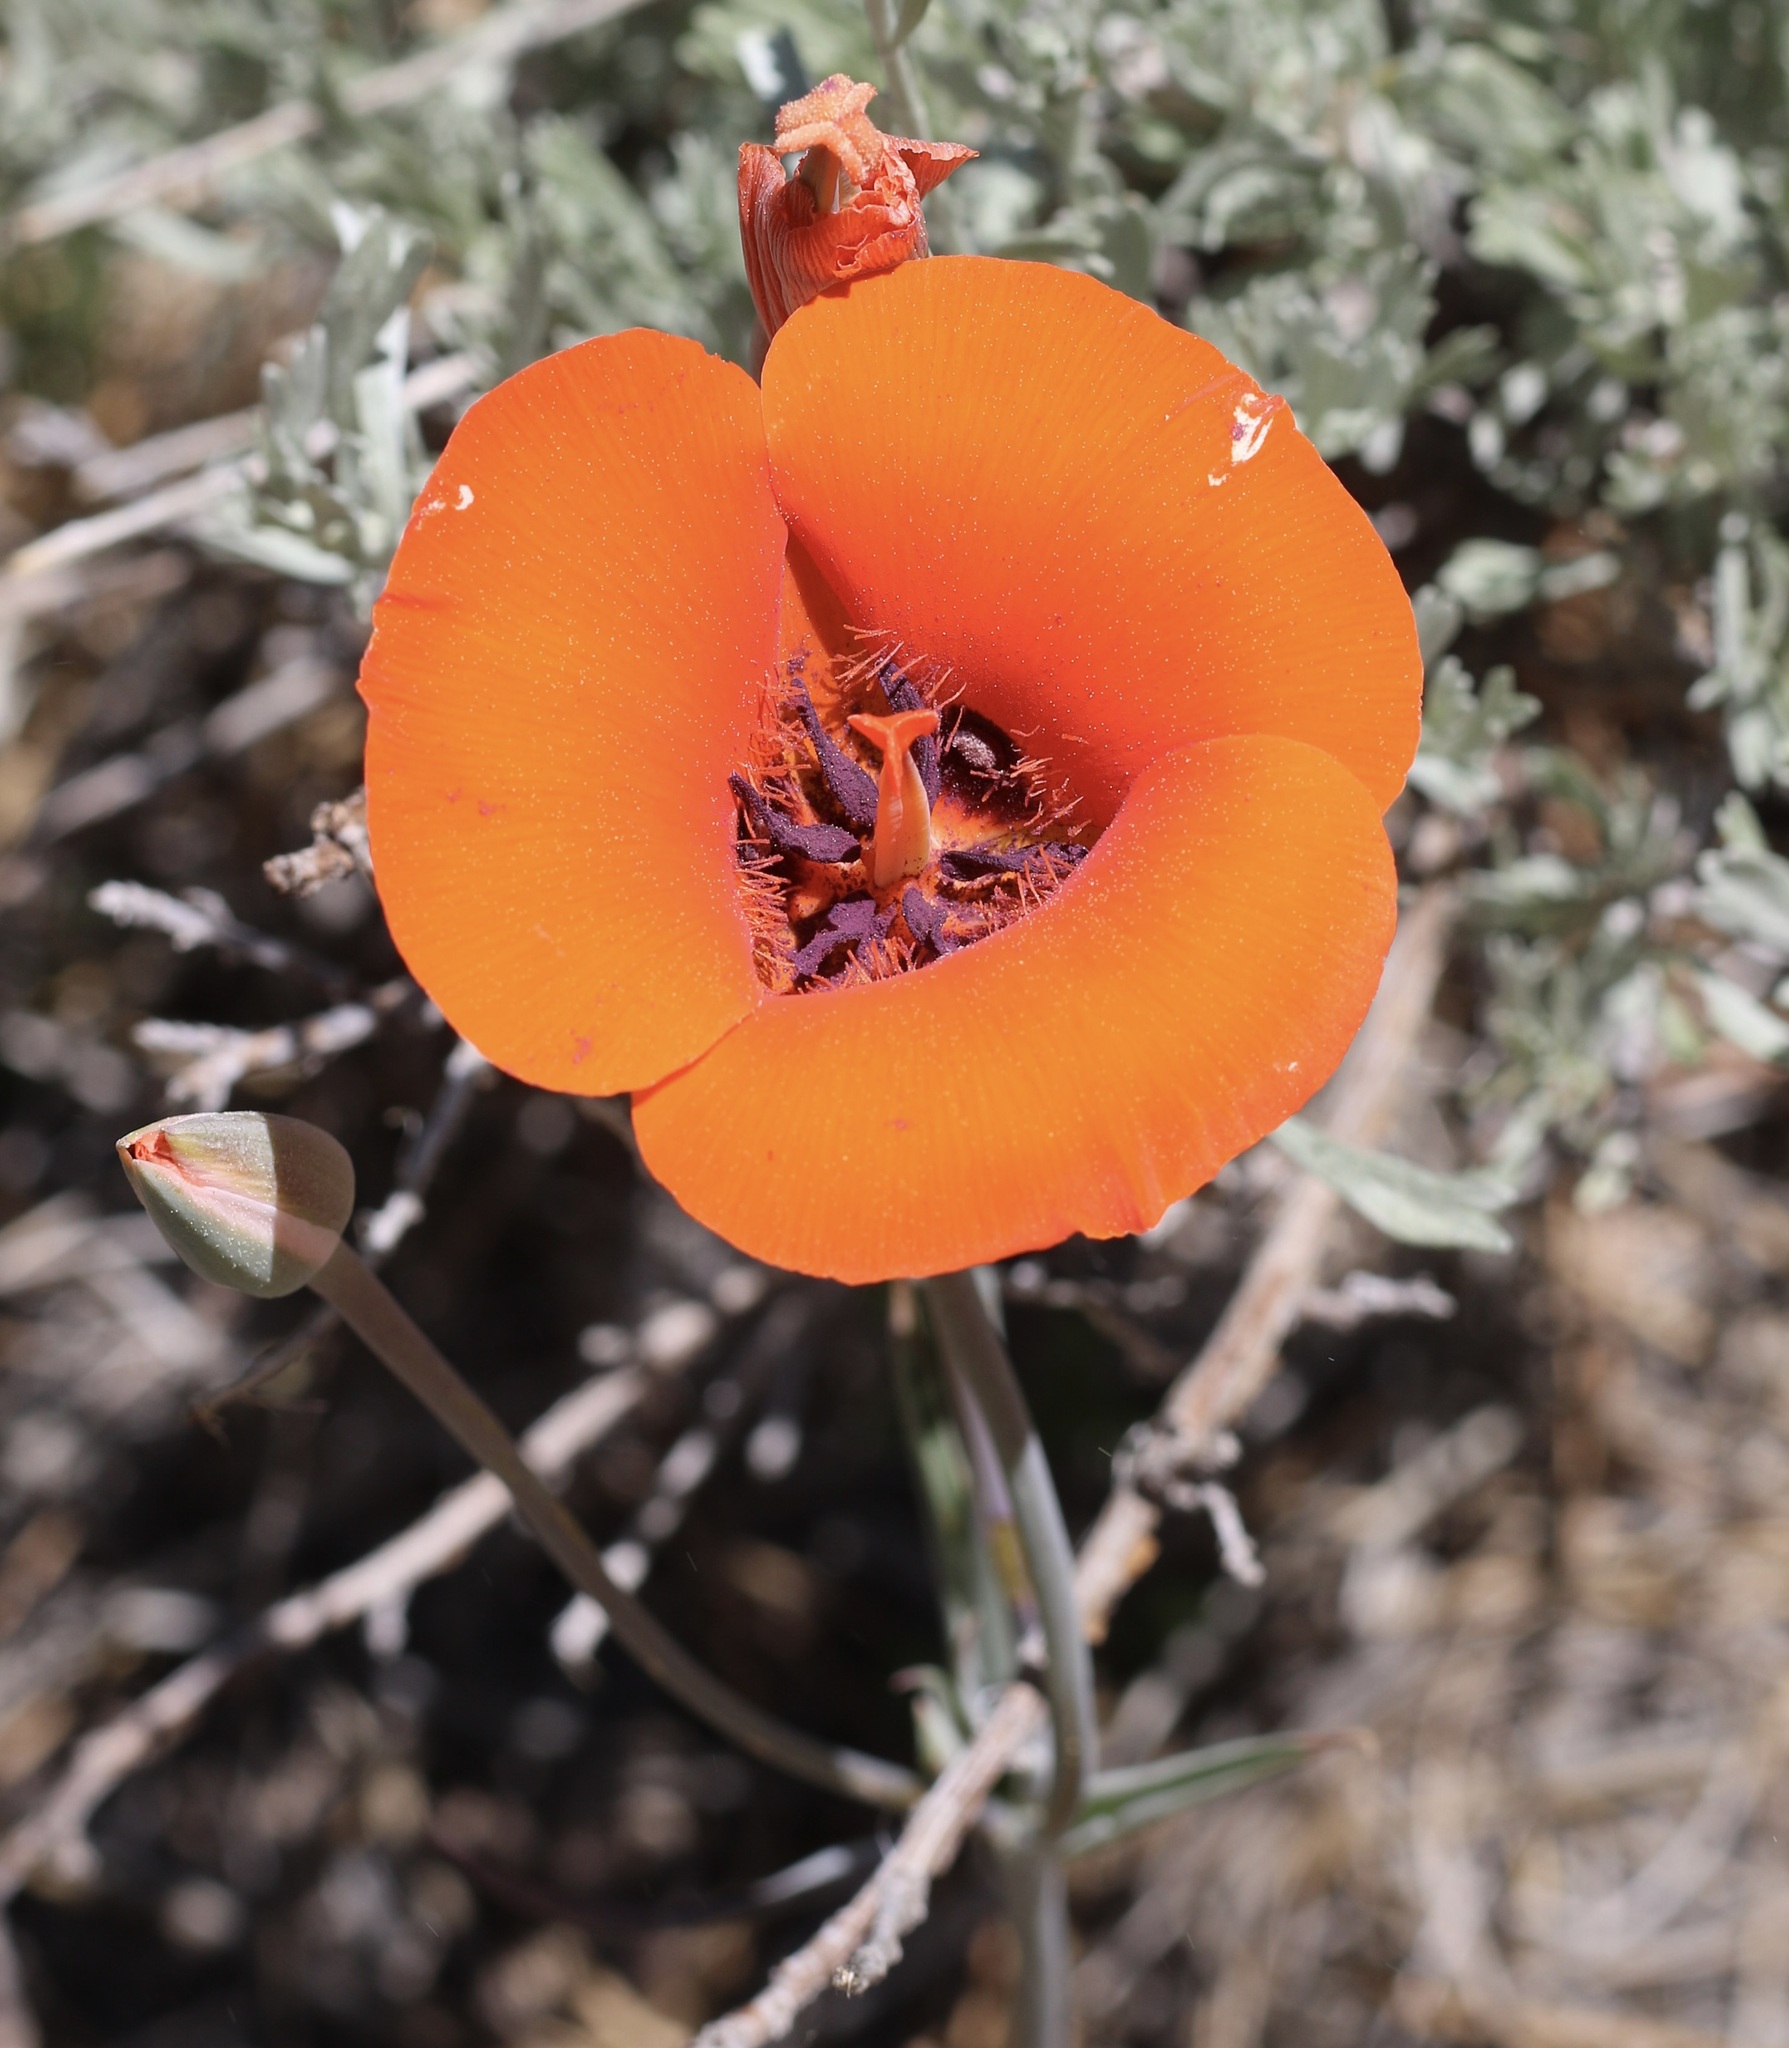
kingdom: Plantae
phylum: Tracheophyta
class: Liliopsida
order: Liliales
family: Liliaceae
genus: Calochortus
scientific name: Calochortus kennedyi
